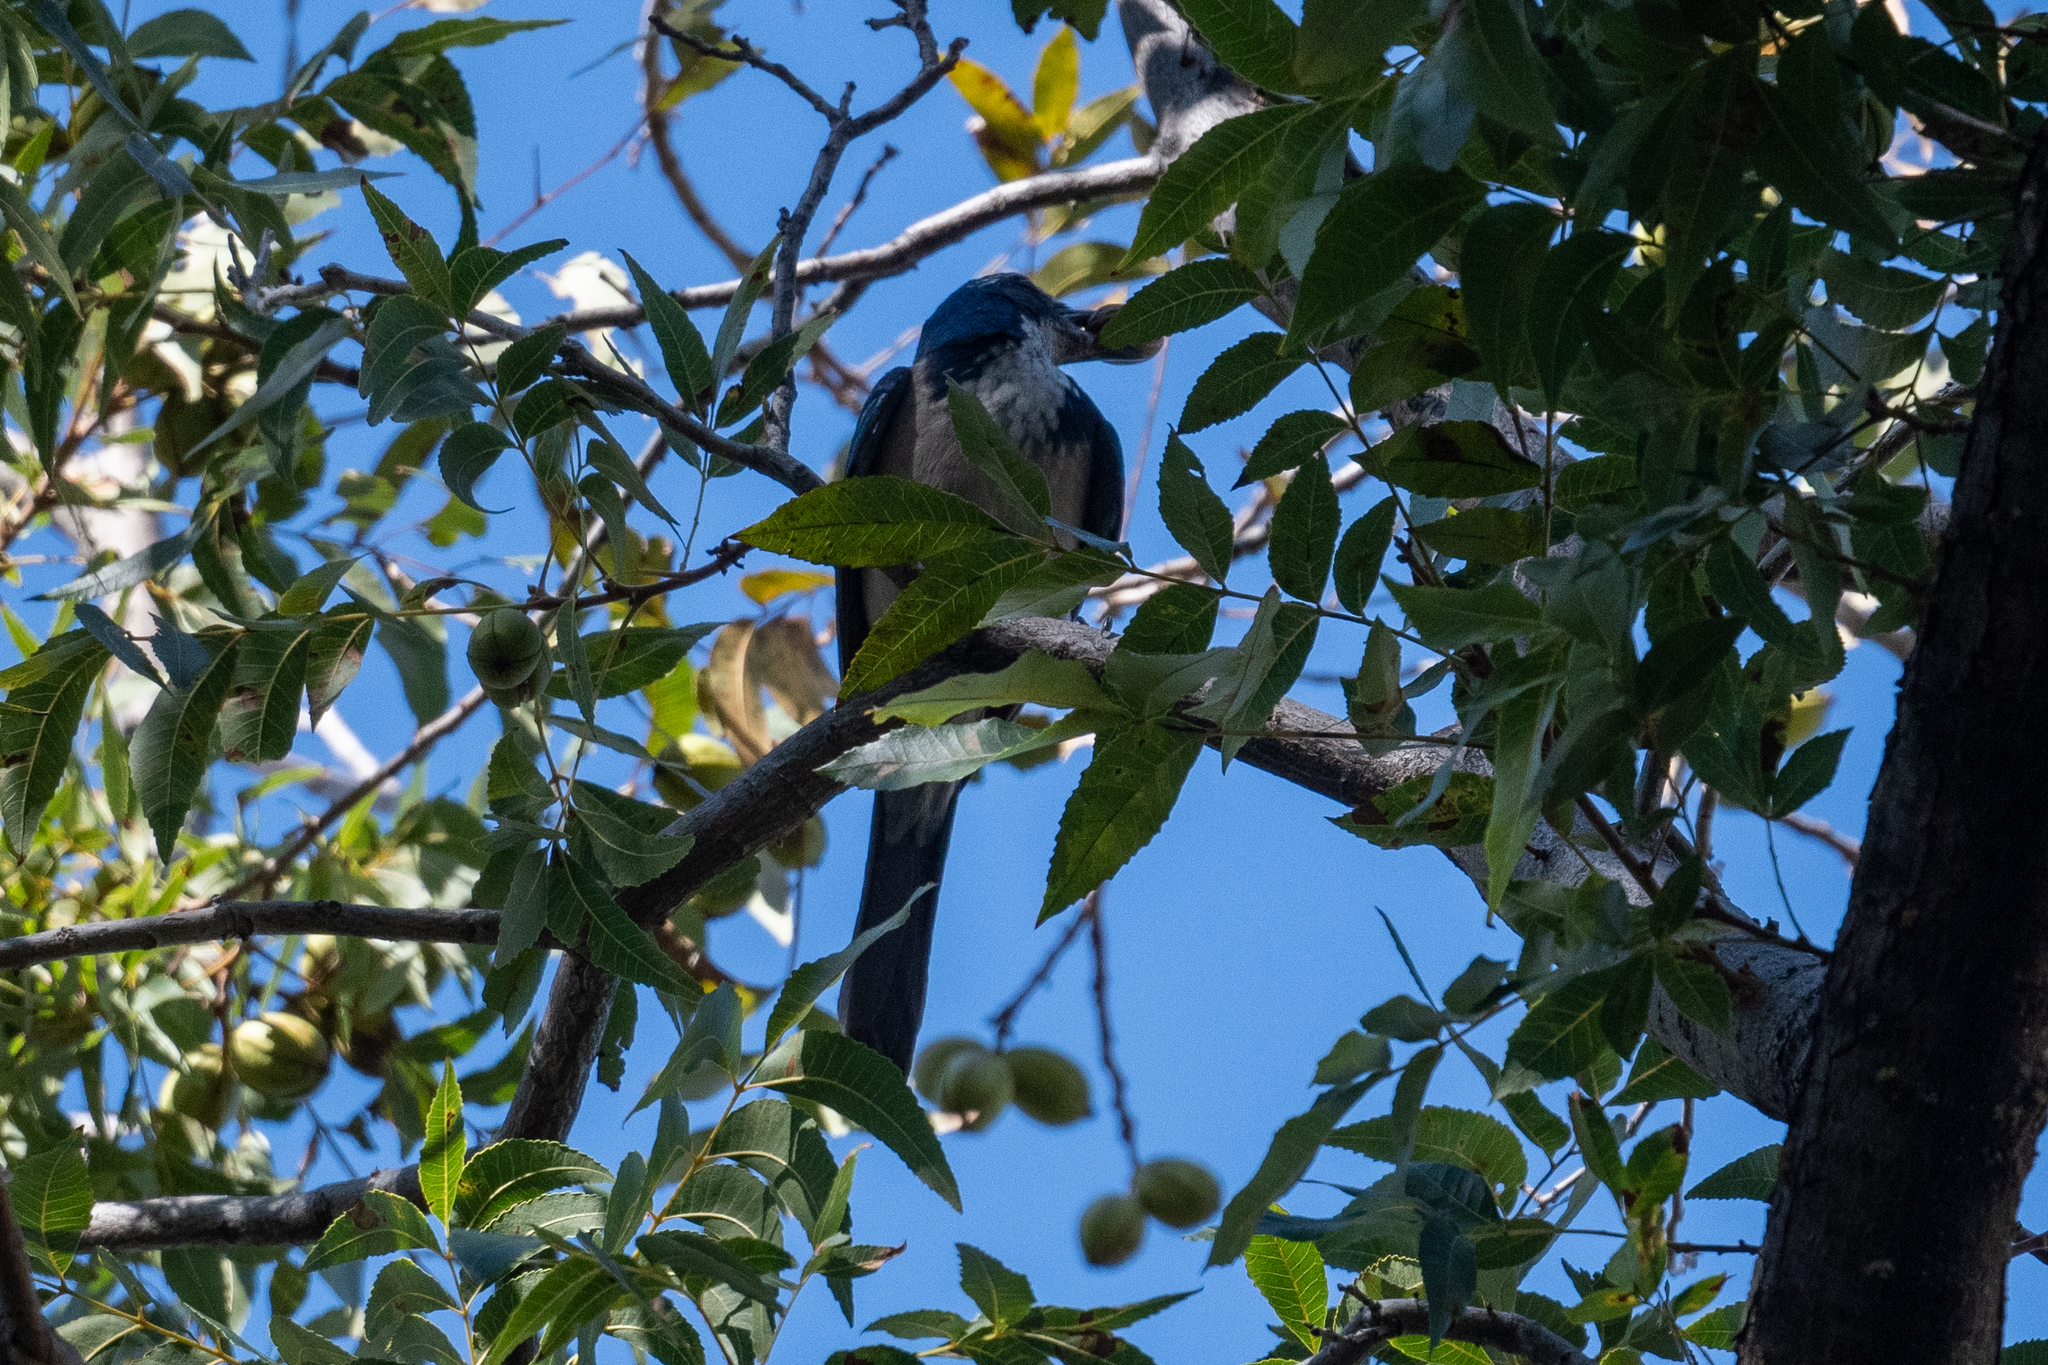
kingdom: Animalia
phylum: Chordata
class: Aves
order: Passeriformes
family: Corvidae
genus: Aphelocoma
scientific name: Aphelocoma californica
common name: California scrub-jay
